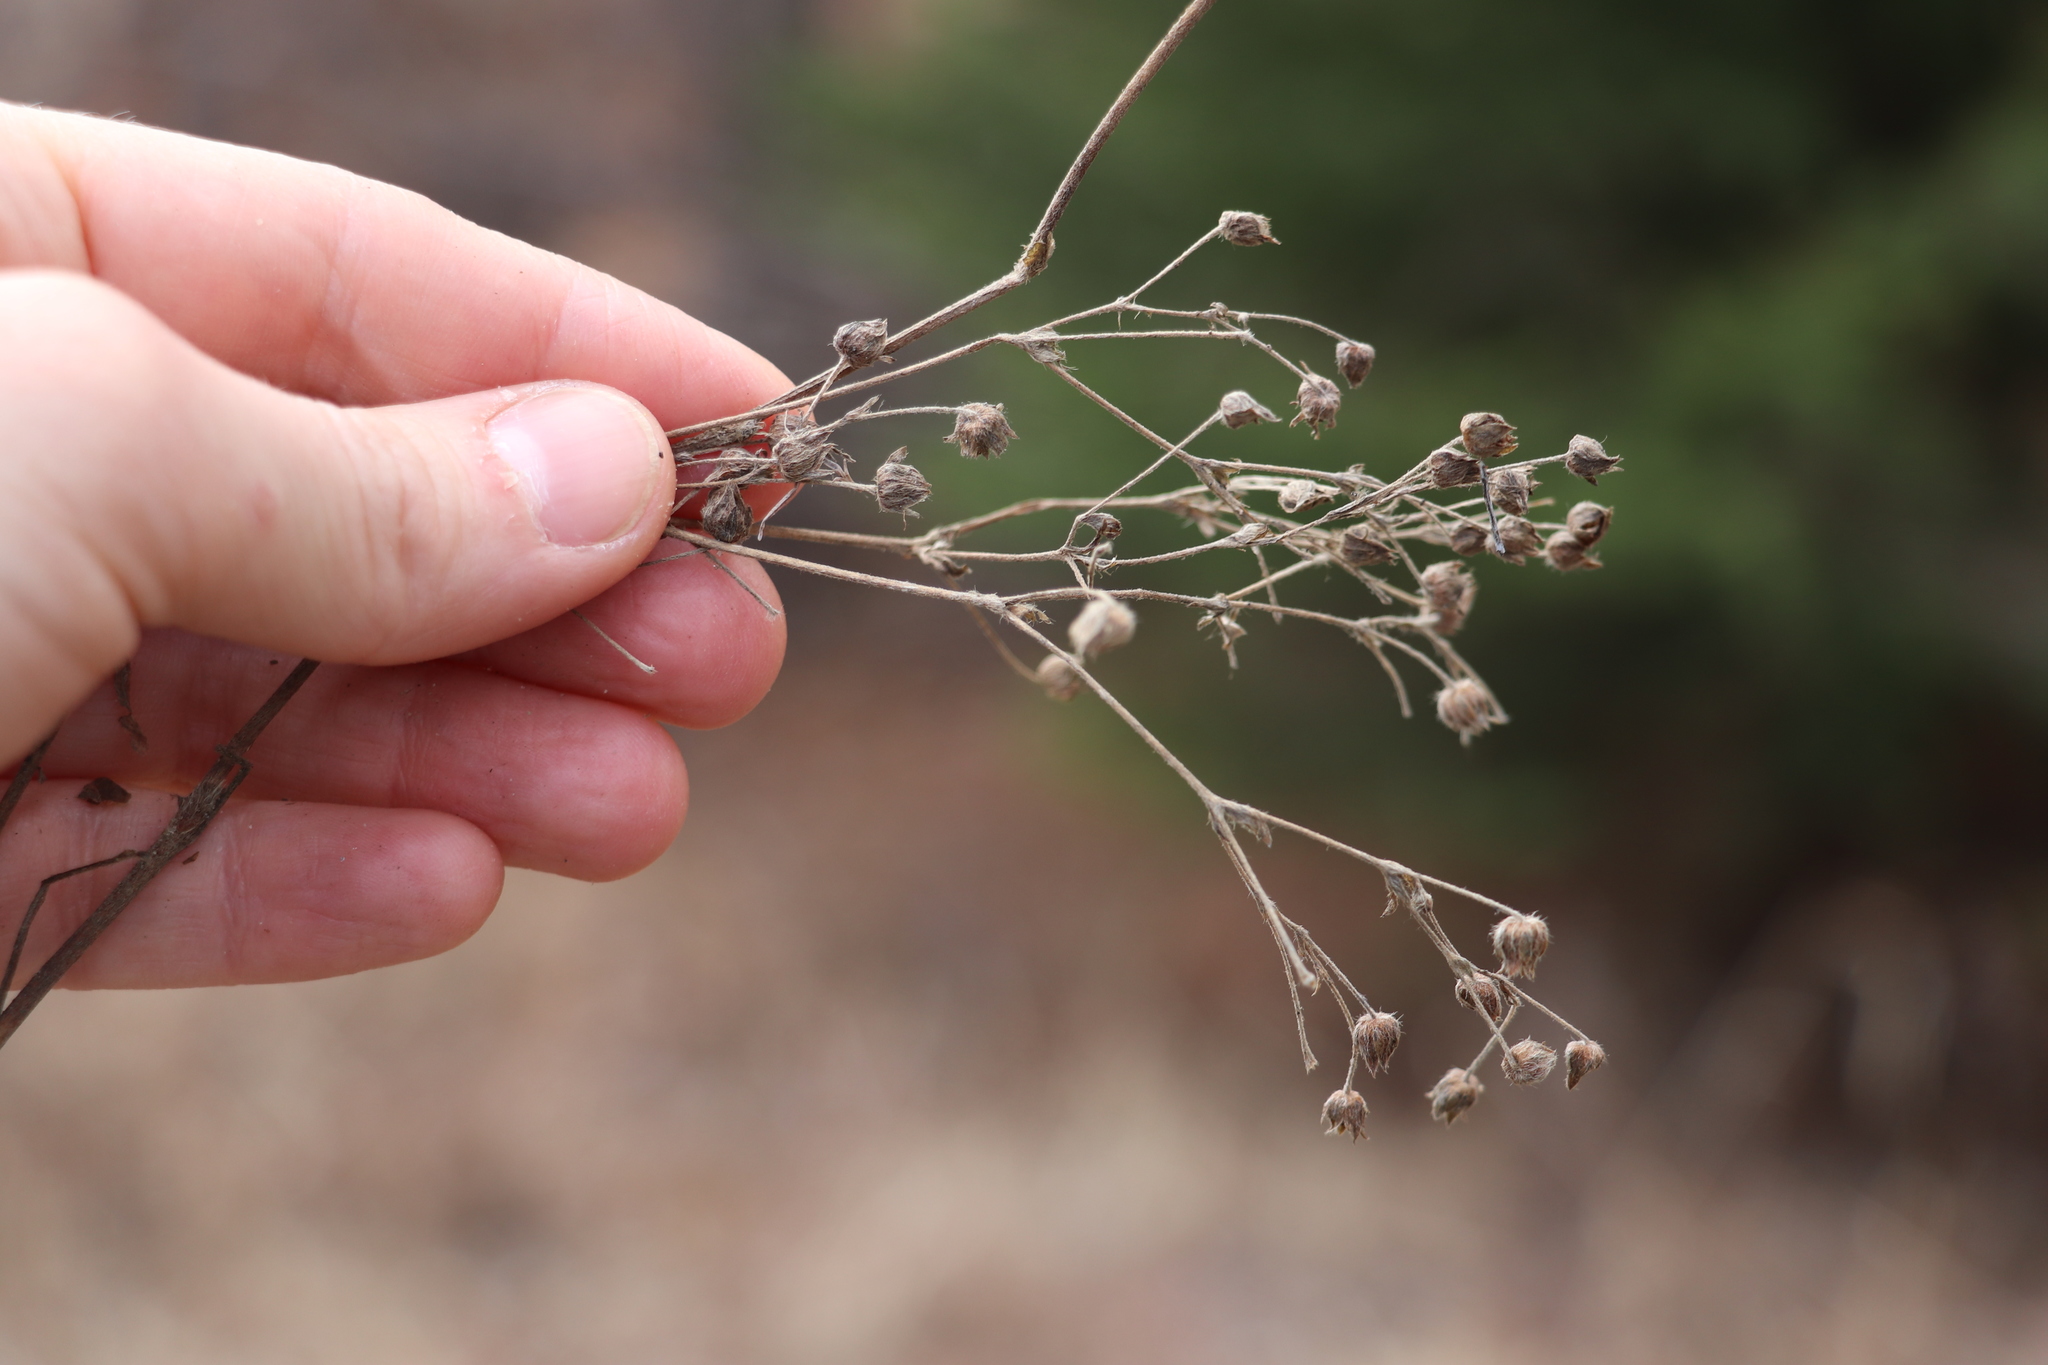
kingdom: Plantae
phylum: Tracheophyta
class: Magnoliopsida
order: Rosales
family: Rosaceae
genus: Potentilla
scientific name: Potentilla argentea
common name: Hoary cinquefoil
